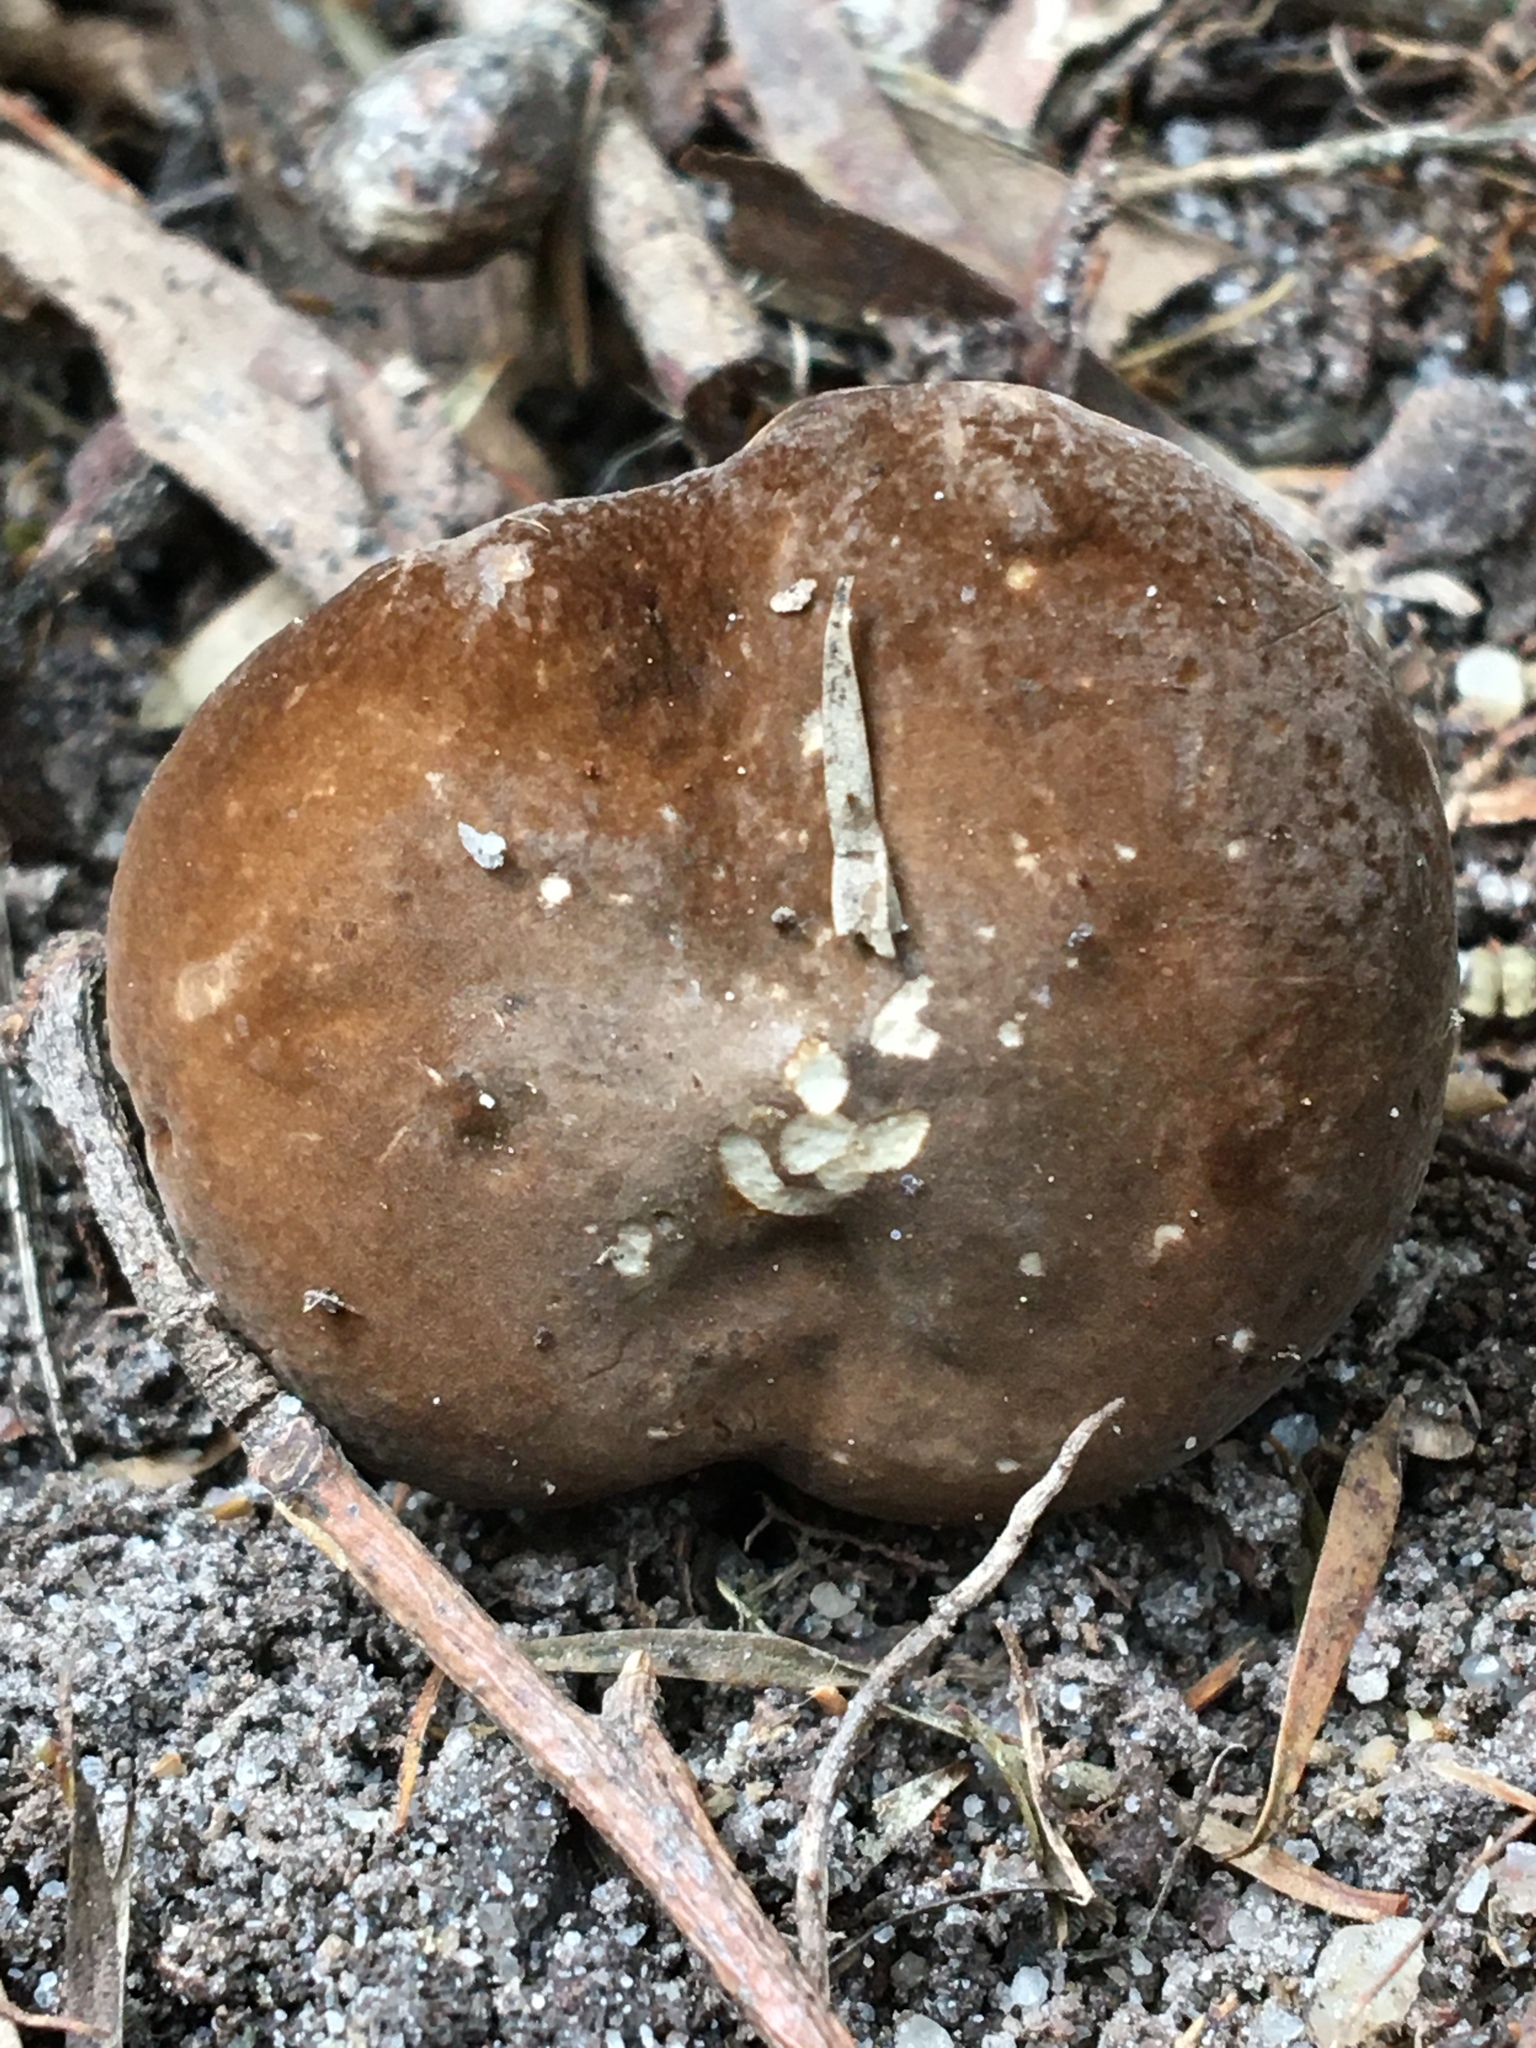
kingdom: Fungi
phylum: Basidiomycota
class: Agaricomycetes
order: Russulales
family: Russulaceae
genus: Lactifluus
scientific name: Lactifluus wirrabara
